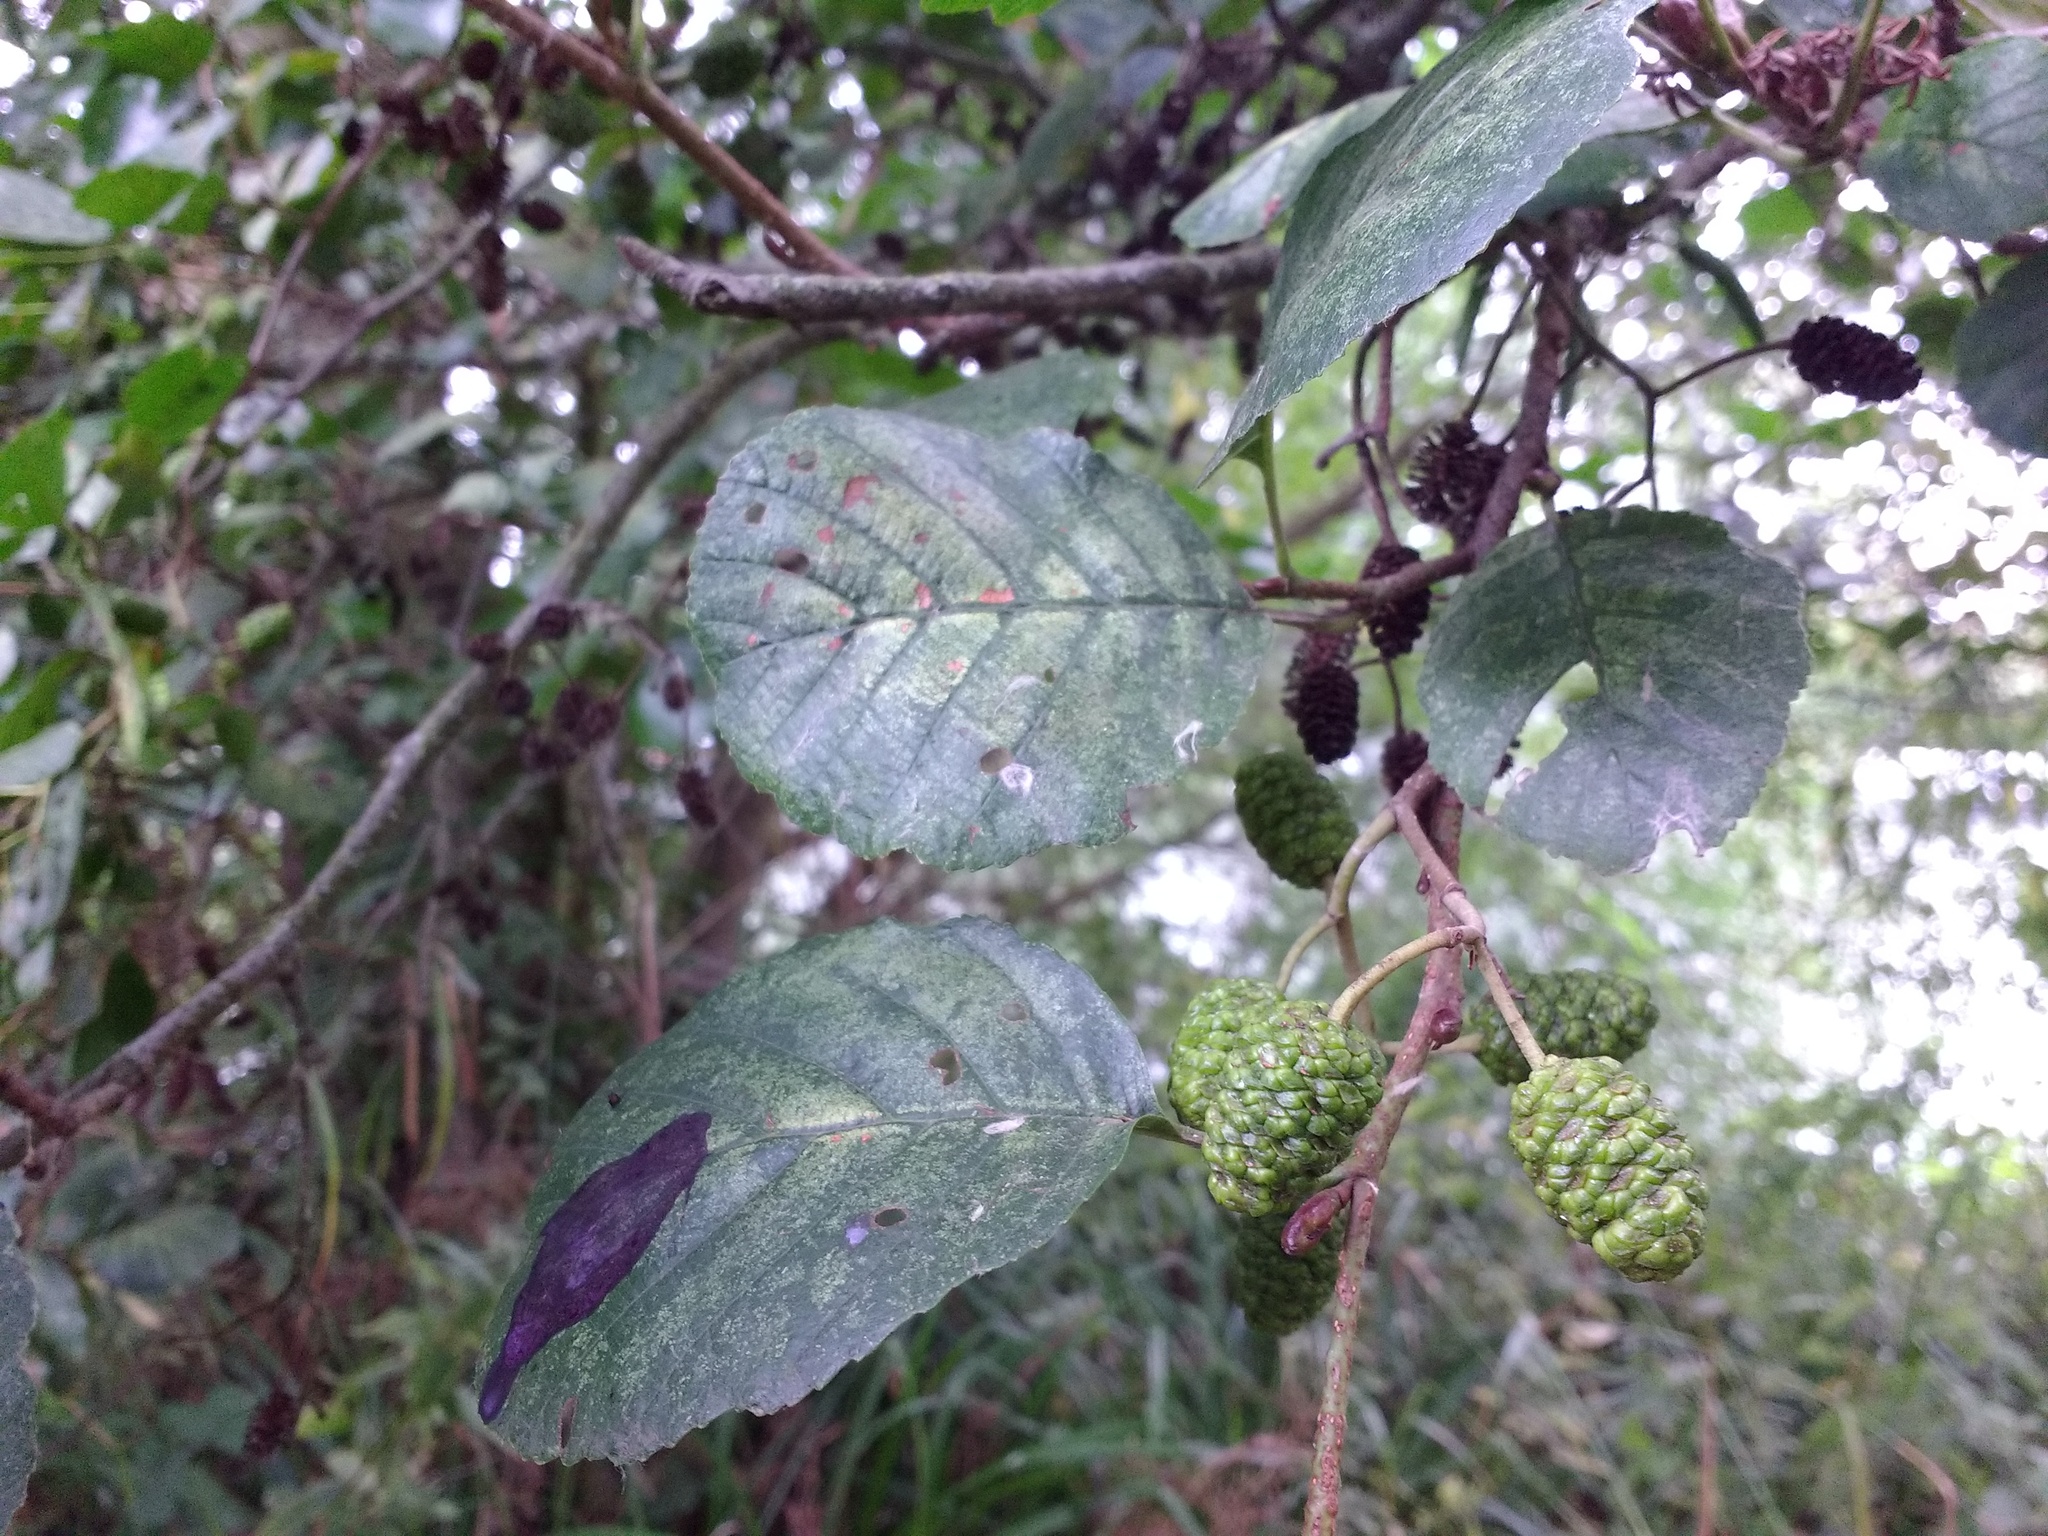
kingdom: Plantae
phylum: Tracheophyta
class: Magnoliopsida
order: Fagales
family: Betulaceae
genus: Alnus
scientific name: Alnus glutinosa
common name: Black alder
